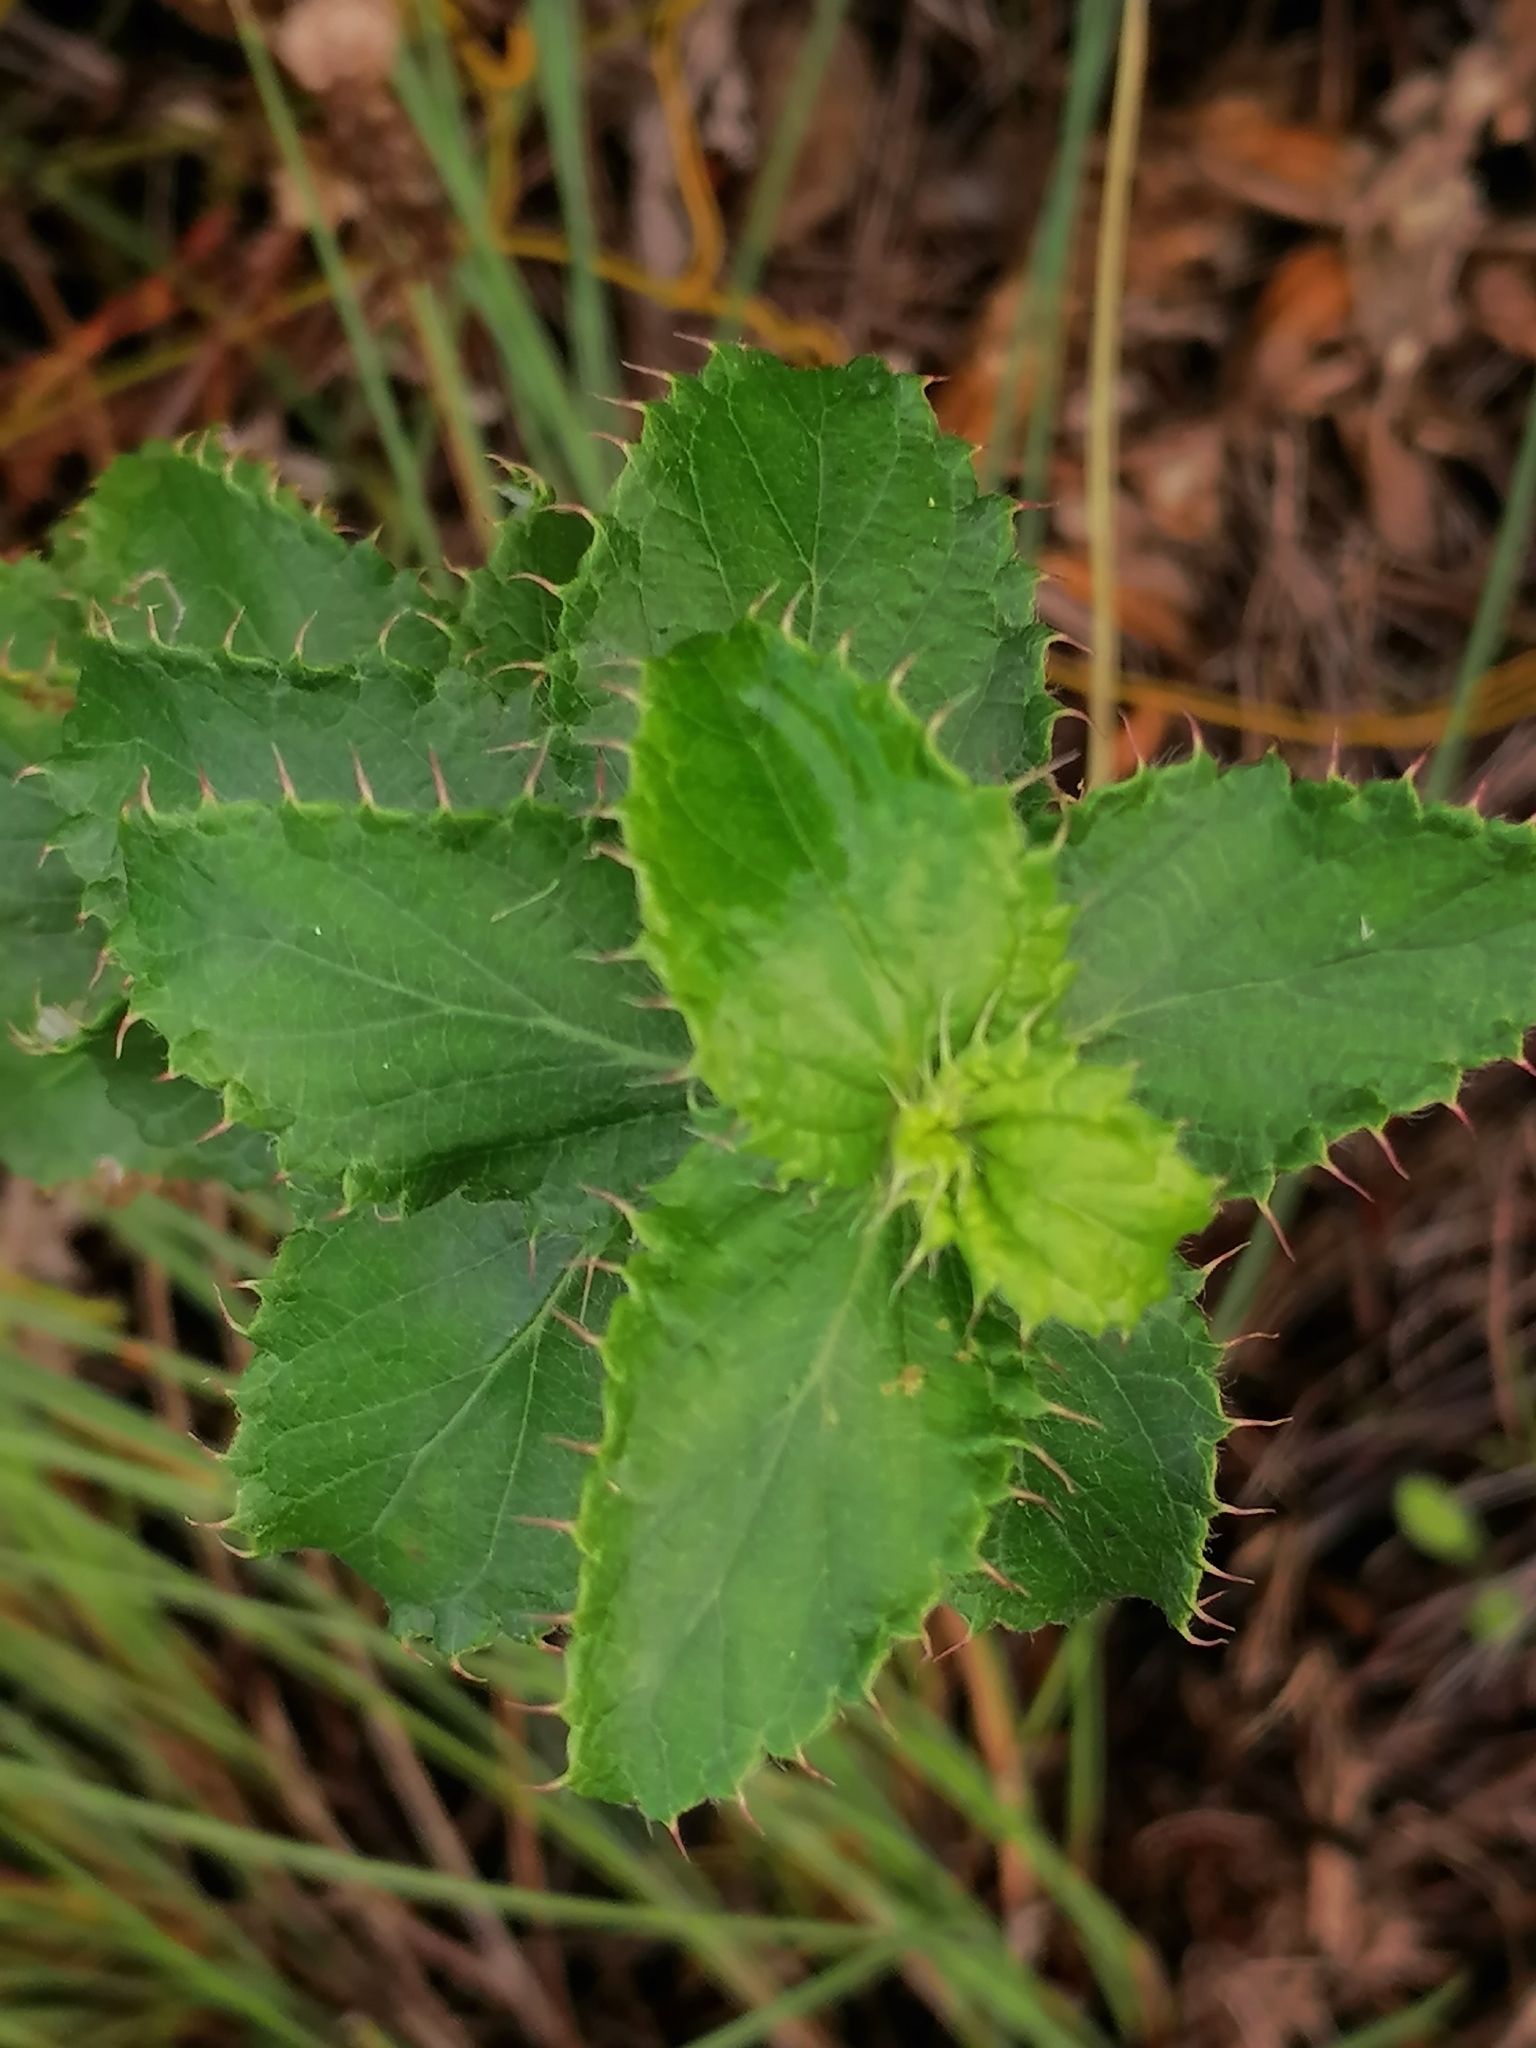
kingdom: Plantae
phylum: Tracheophyta
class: Magnoliopsida
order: Rosales
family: Rosaceae
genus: Cliffortia
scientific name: Cliffortia hirsuta
